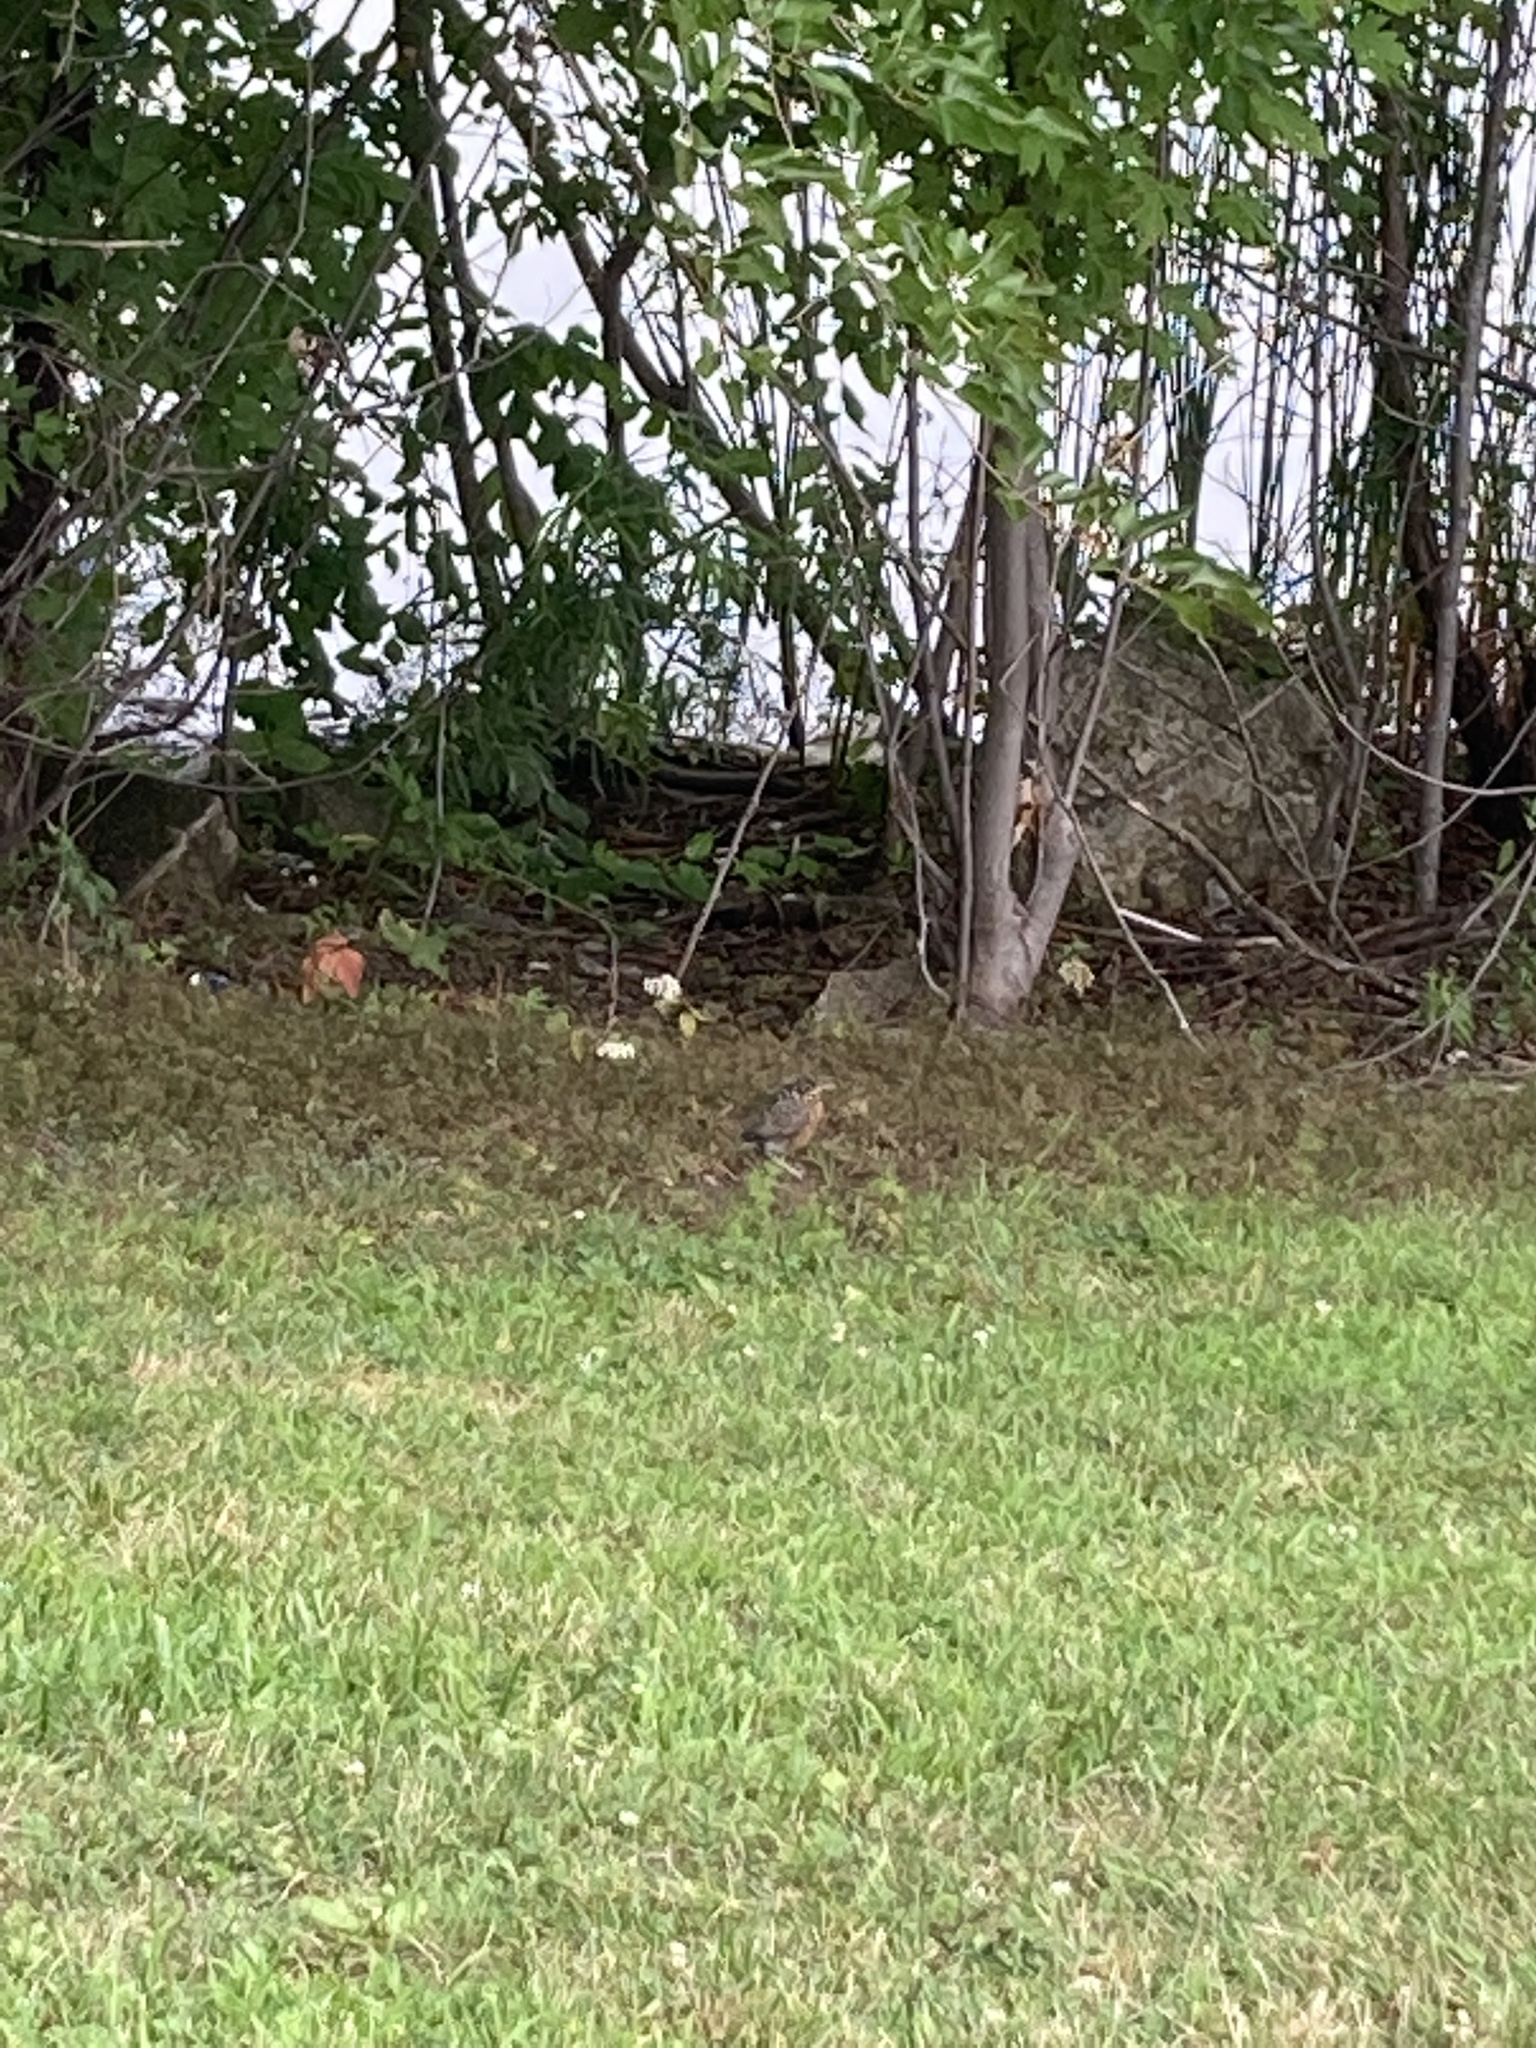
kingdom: Animalia
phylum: Chordata
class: Aves
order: Passeriformes
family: Turdidae
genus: Turdus
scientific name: Turdus migratorius
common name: American robin
